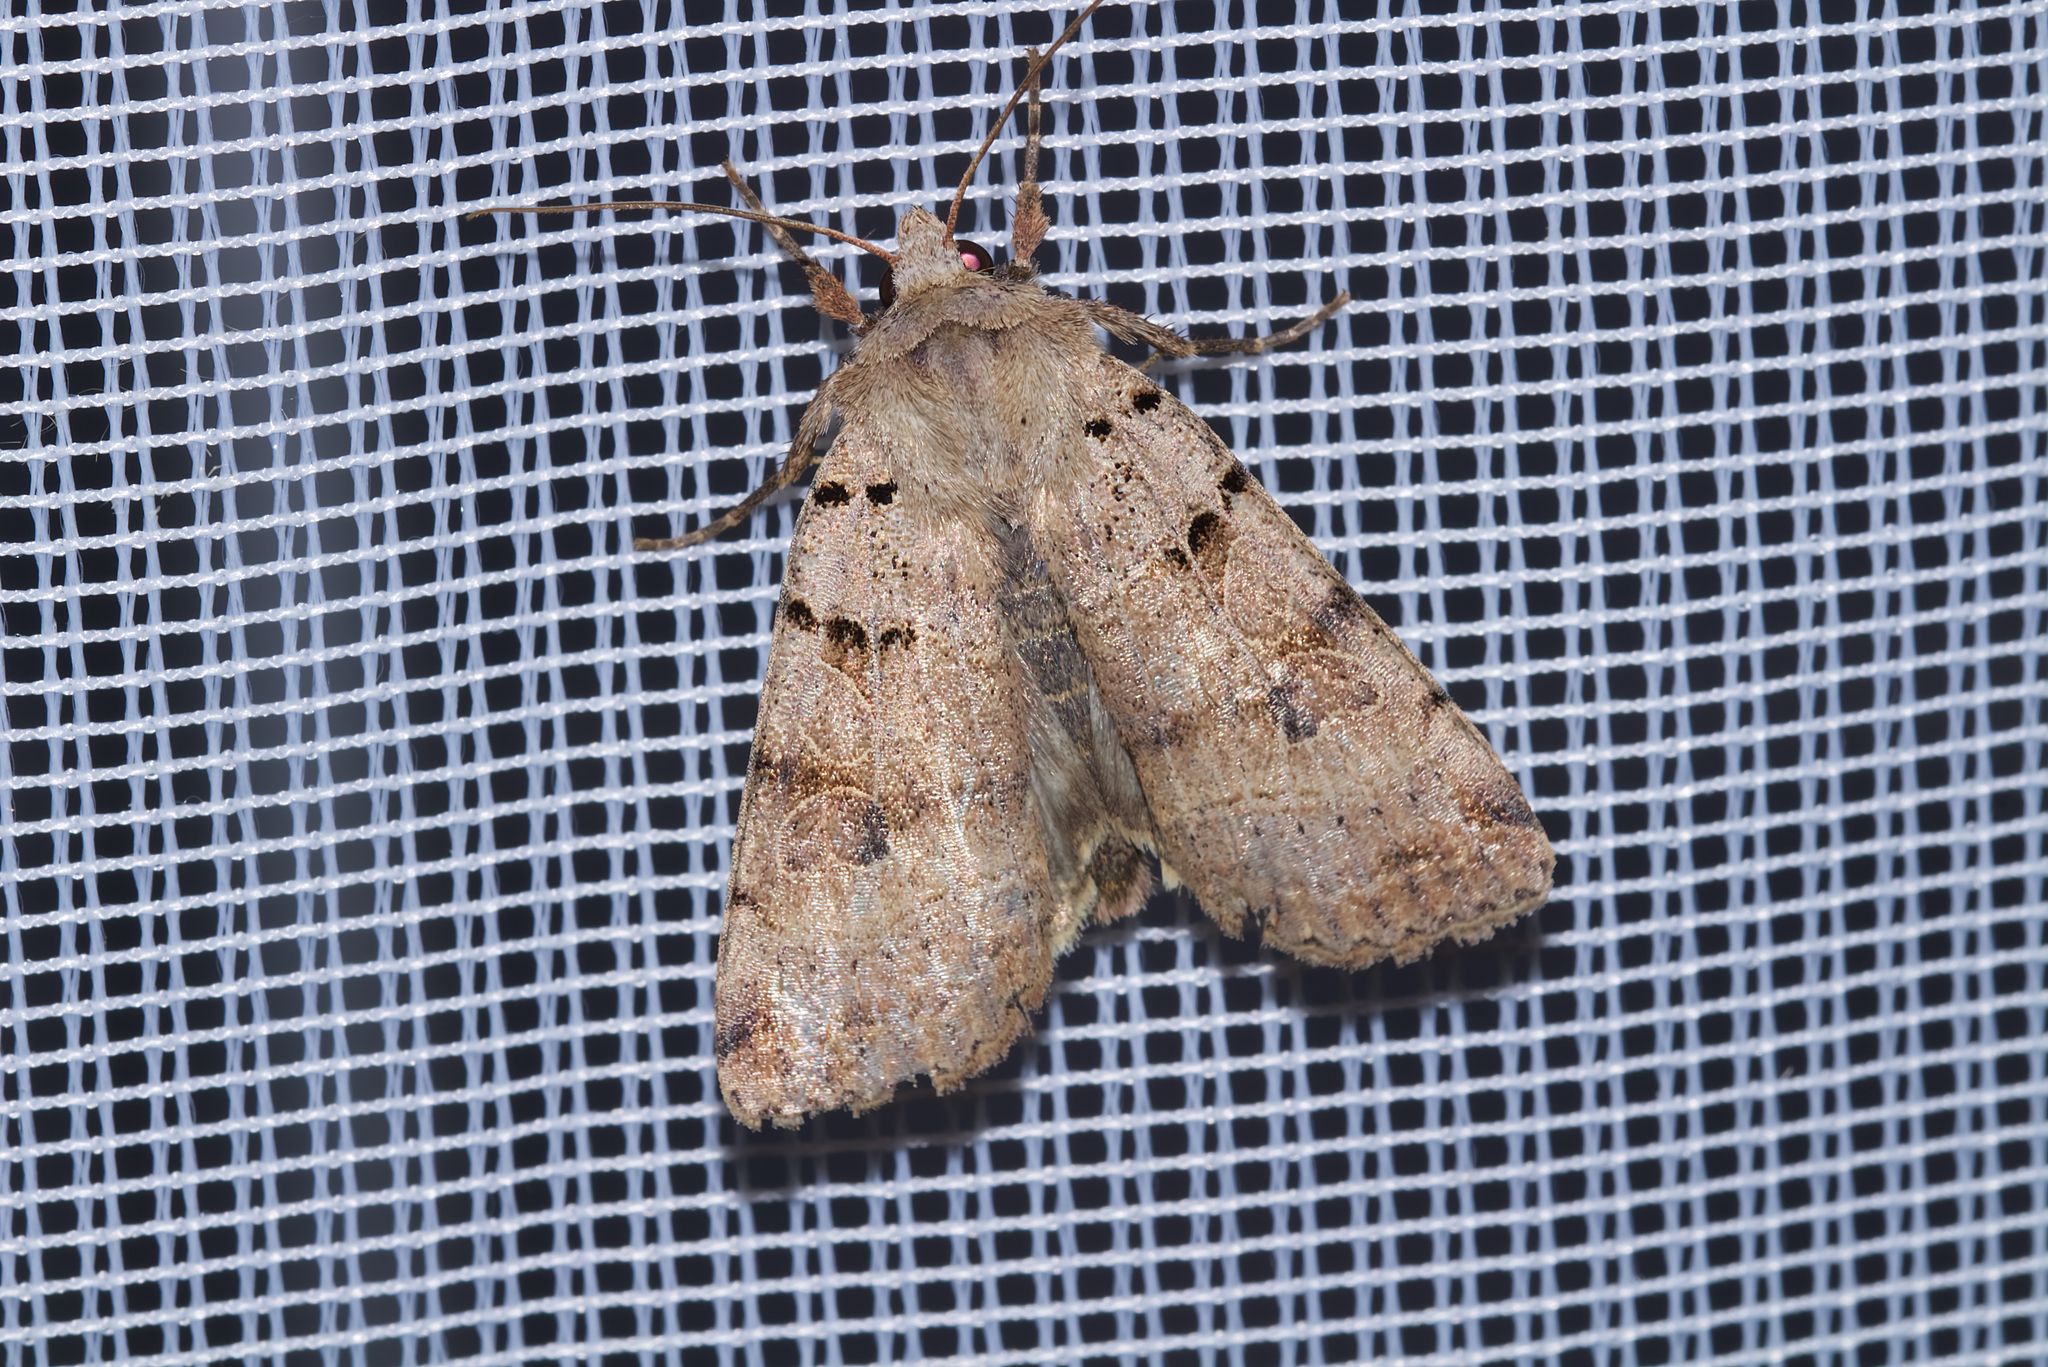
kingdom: Animalia
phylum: Arthropoda
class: Insecta
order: Lepidoptera
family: Noctuidae
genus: Eugnorisma
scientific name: Eugnorisma depuncta
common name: Plain clay
